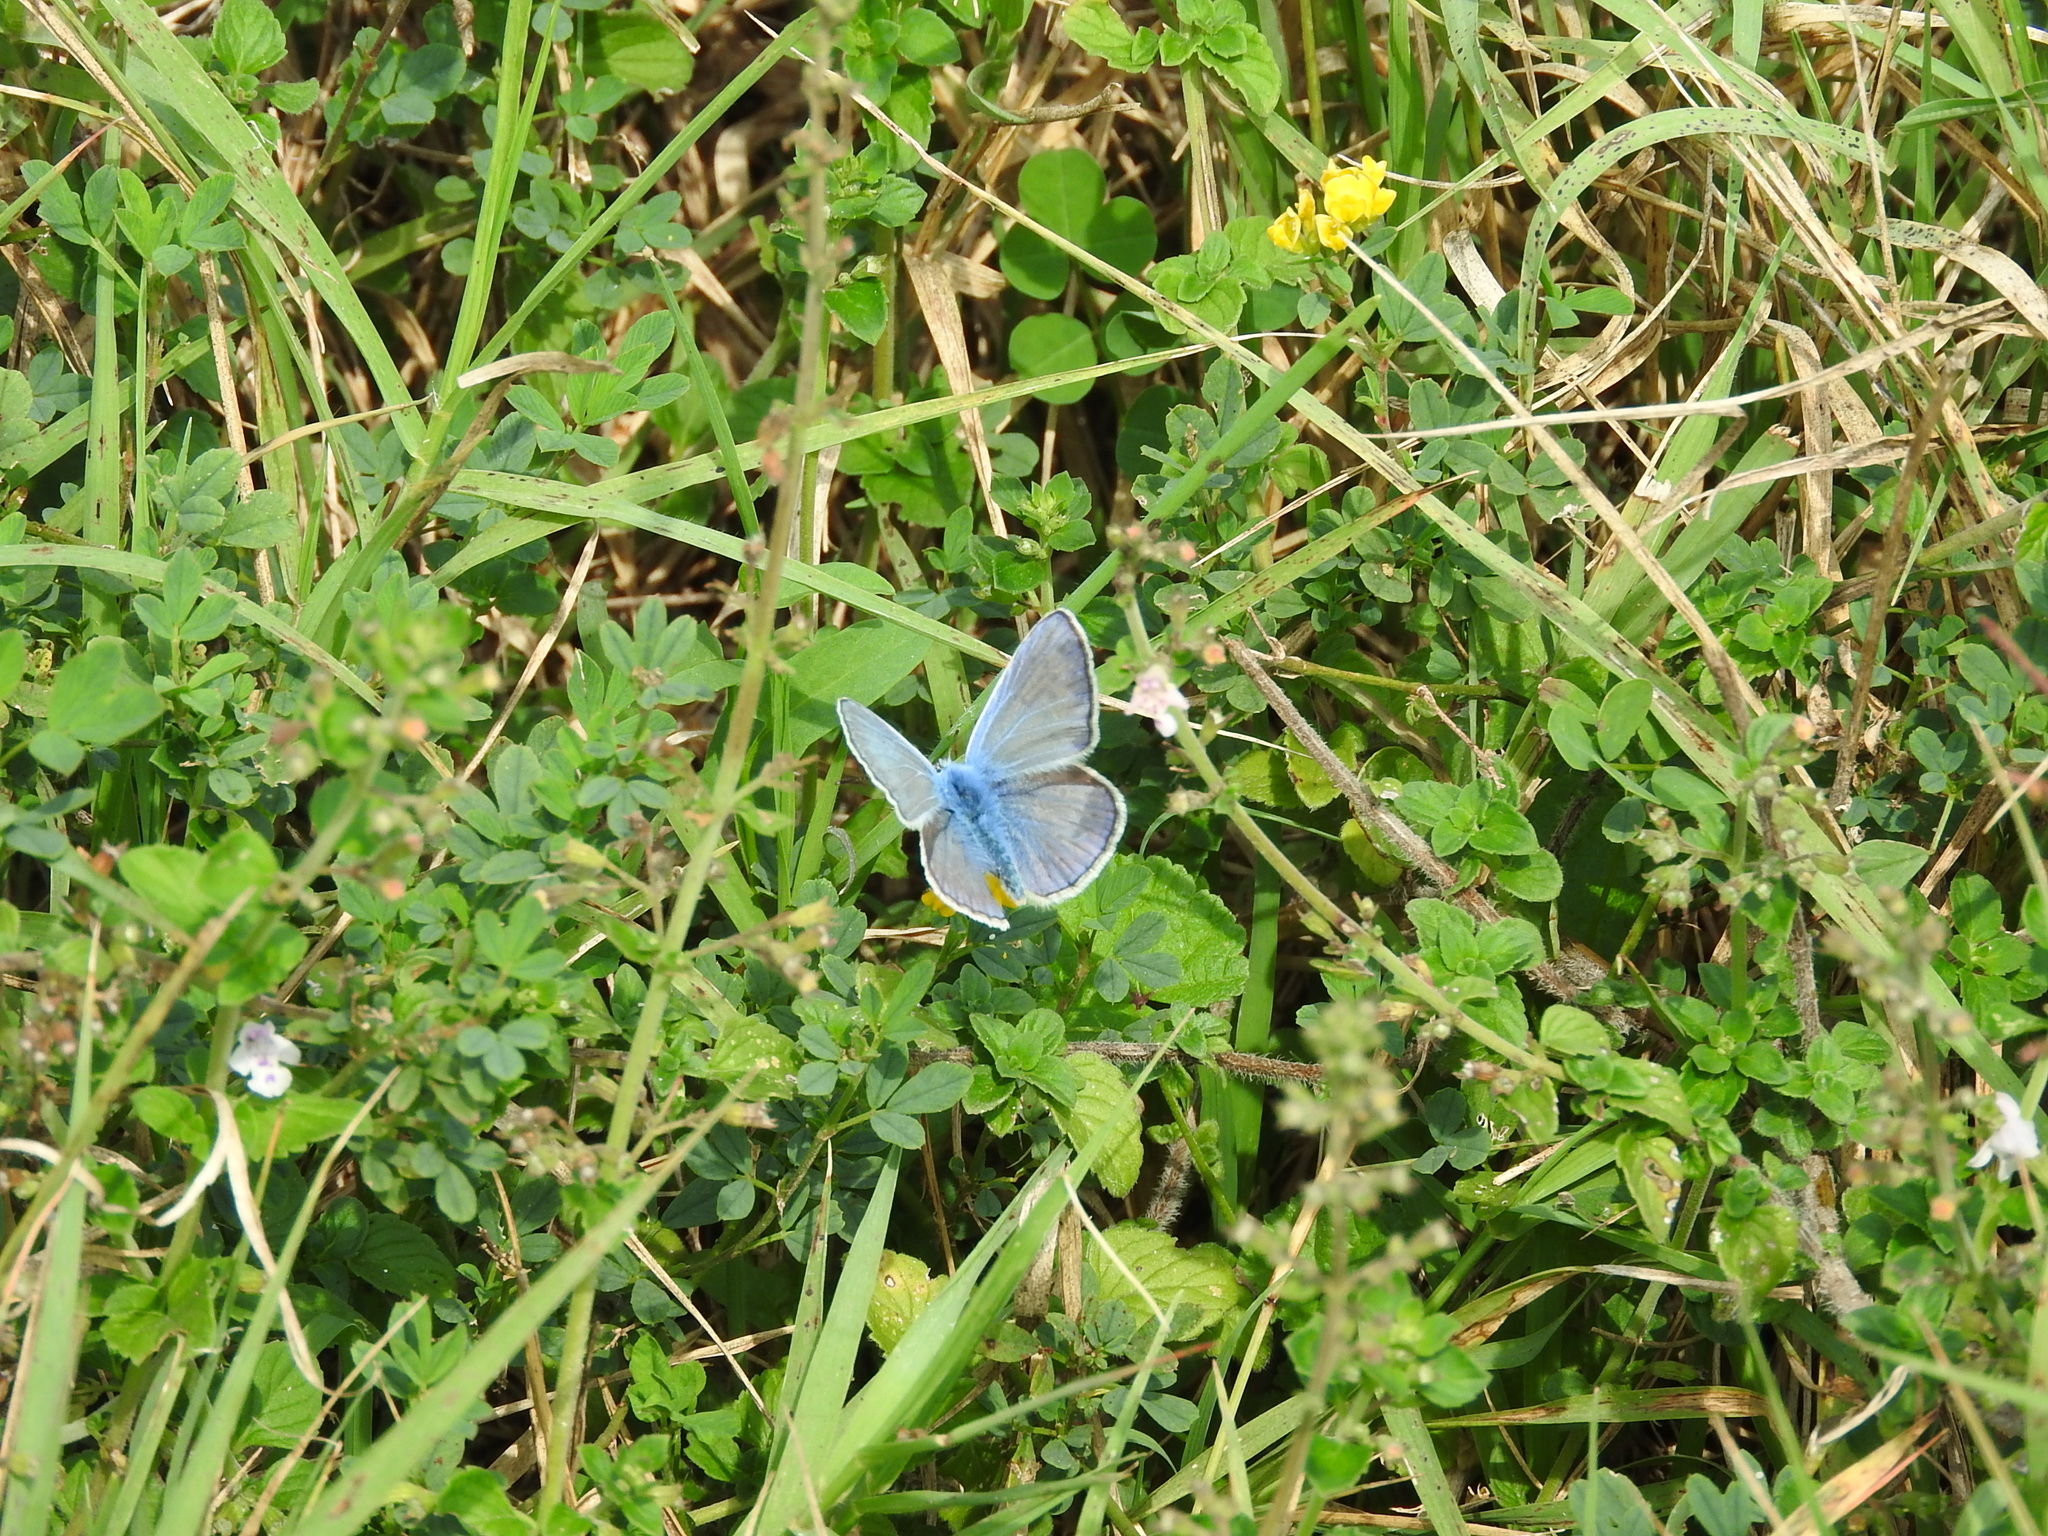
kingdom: Animalia
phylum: Arthropoda
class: Insecta
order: Lepidoptera
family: Lycaenidae
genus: Polyommatus
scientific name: Polyommatus icarus
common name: Common blue
